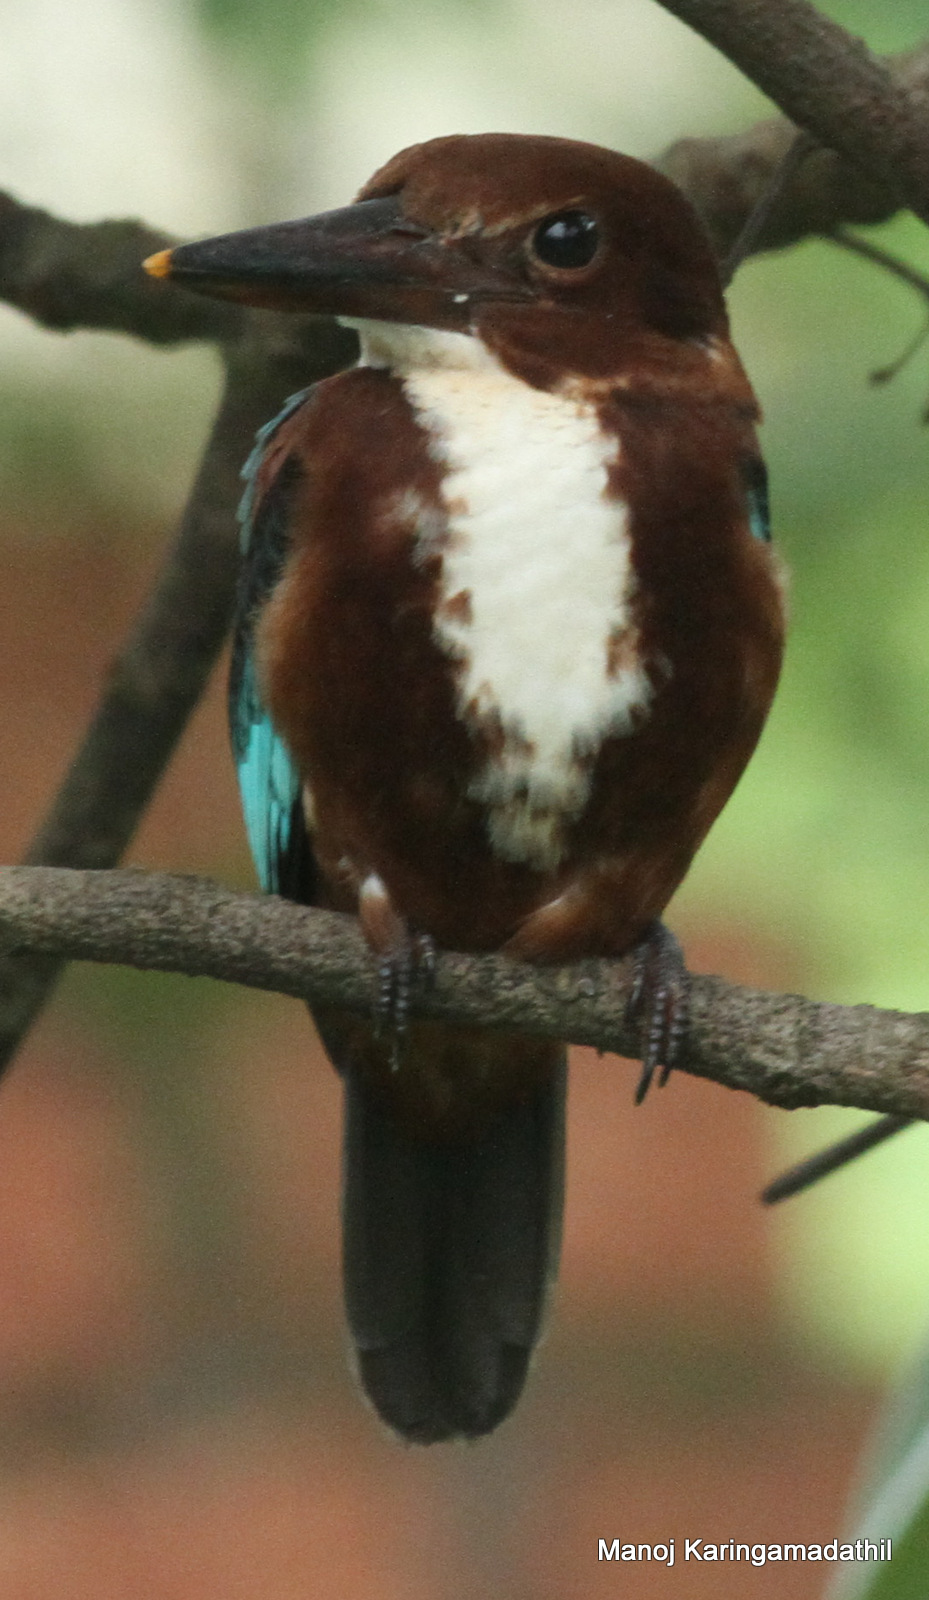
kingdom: Animalia
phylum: Chordata
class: Aves
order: Coraciiformes
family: Alcedinidae
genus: Halcyon
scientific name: Halcyon smyrnensis
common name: White-throated kingfisher
